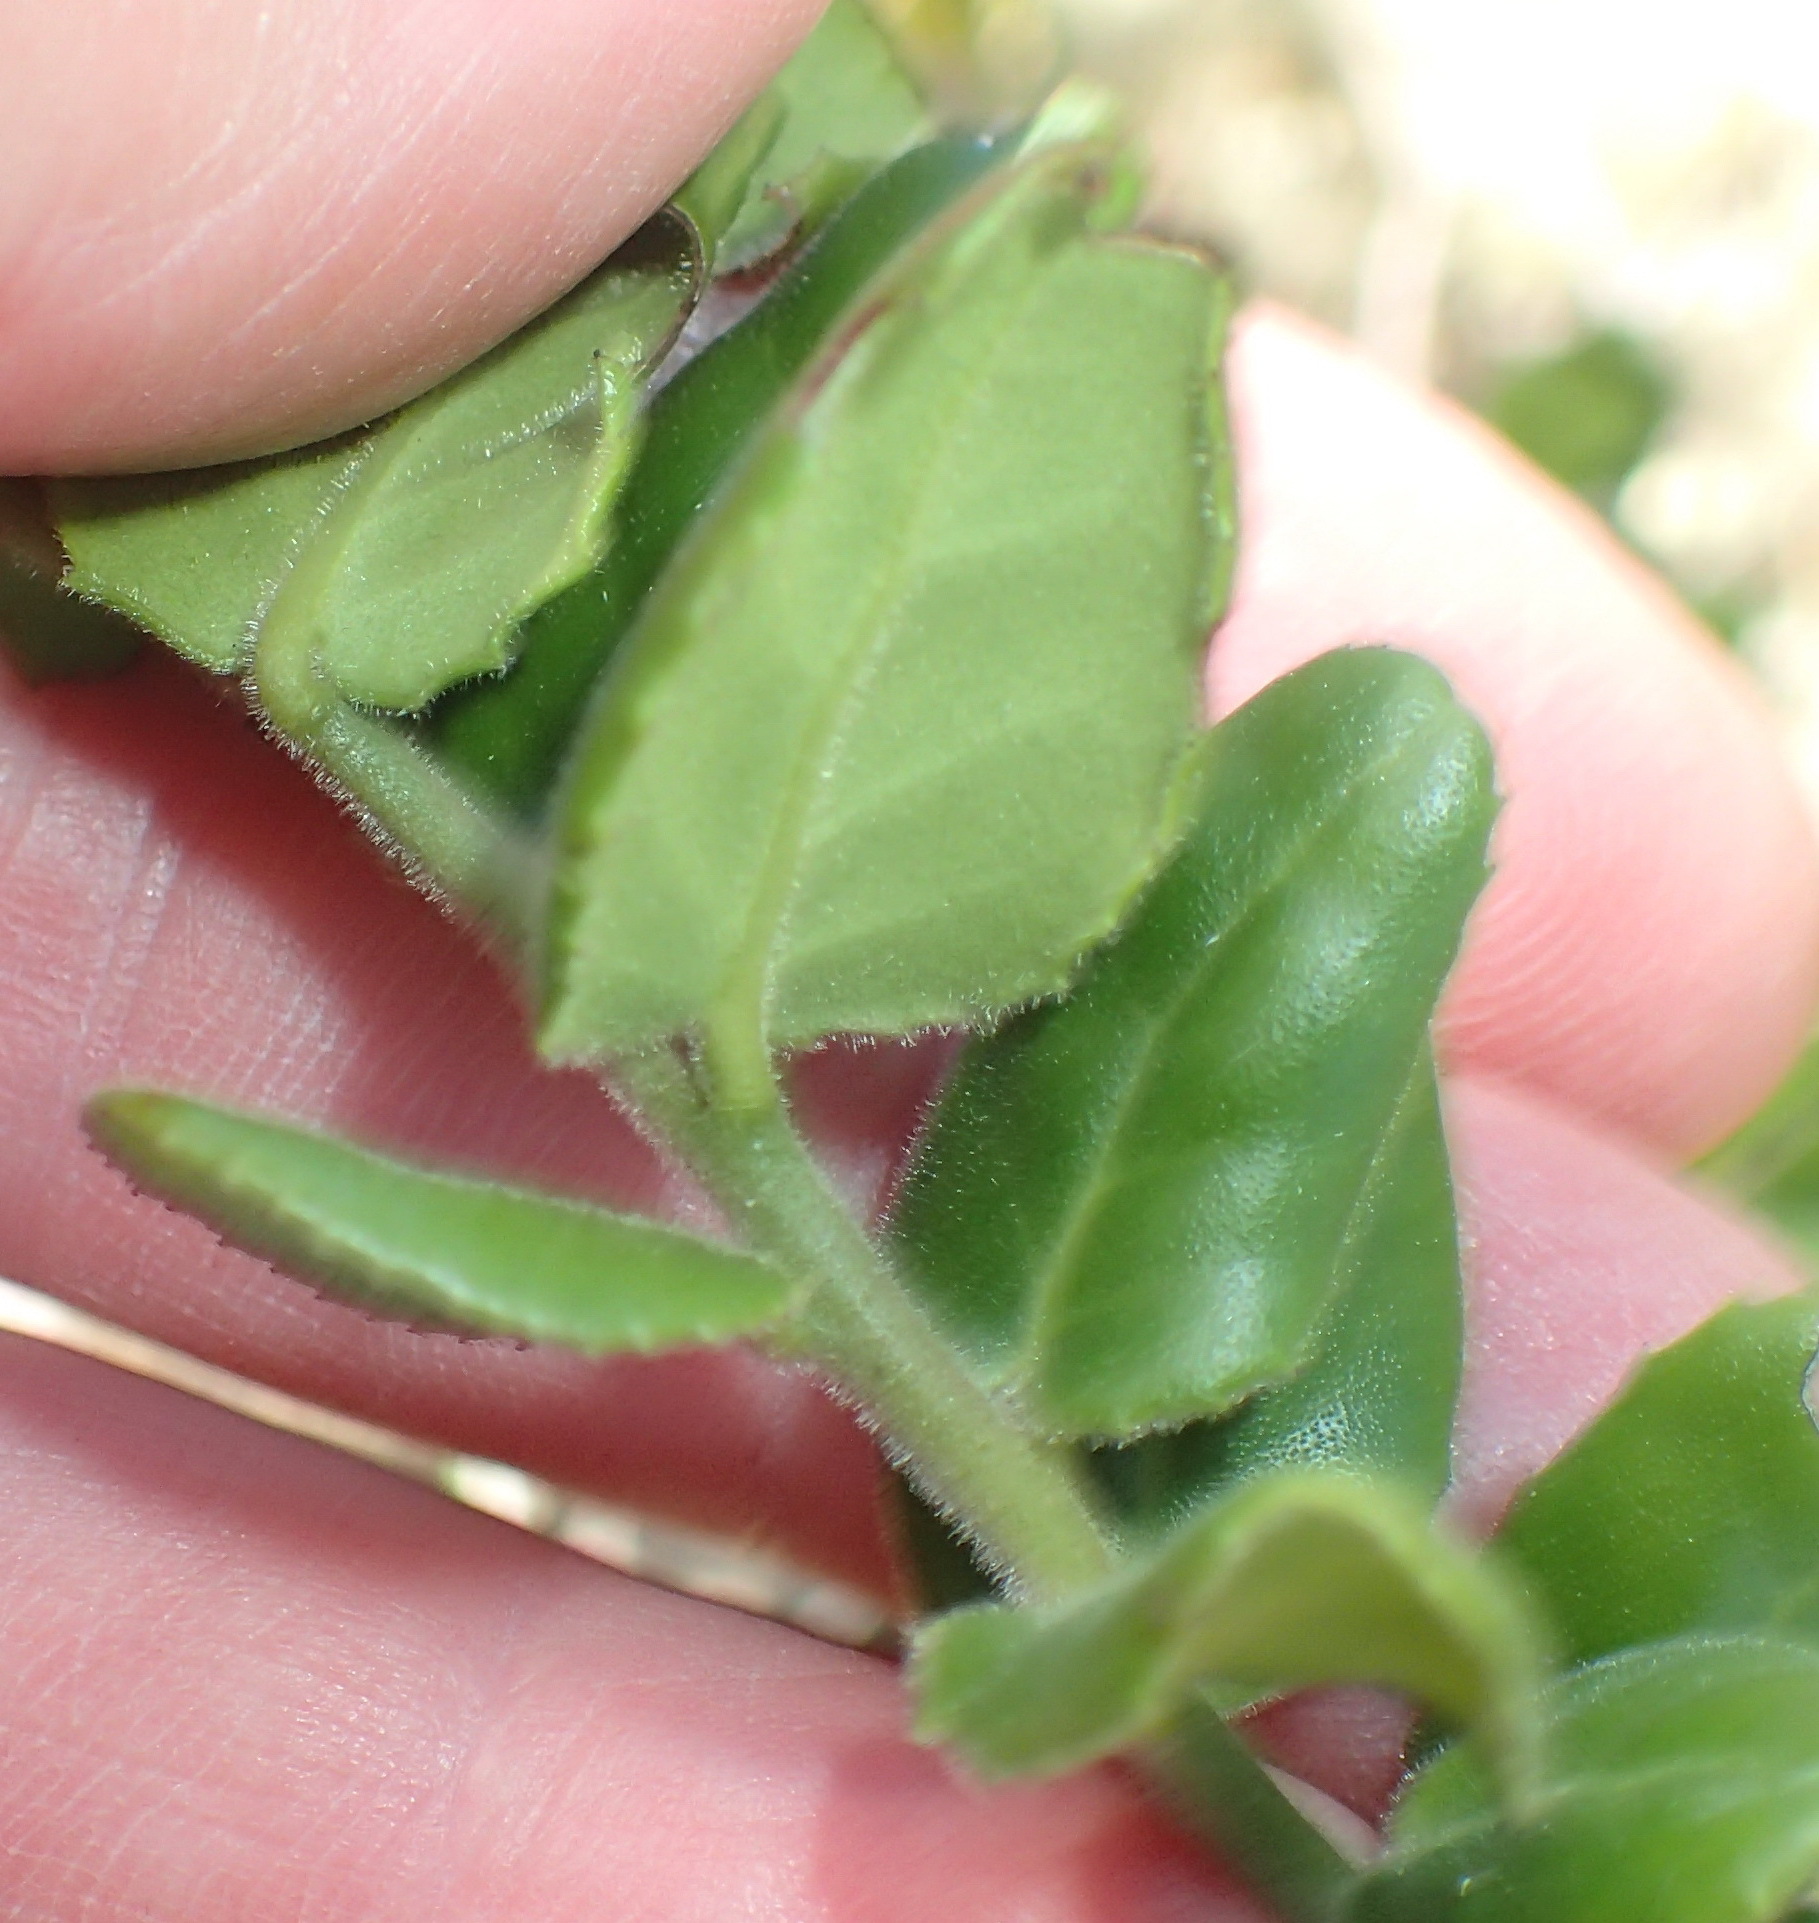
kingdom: Plantae
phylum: Tracheophyta
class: Magnoliopsida
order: Celastrales
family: Celastraceae
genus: Mystroxylon
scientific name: Mystroxylon aethiopicum
